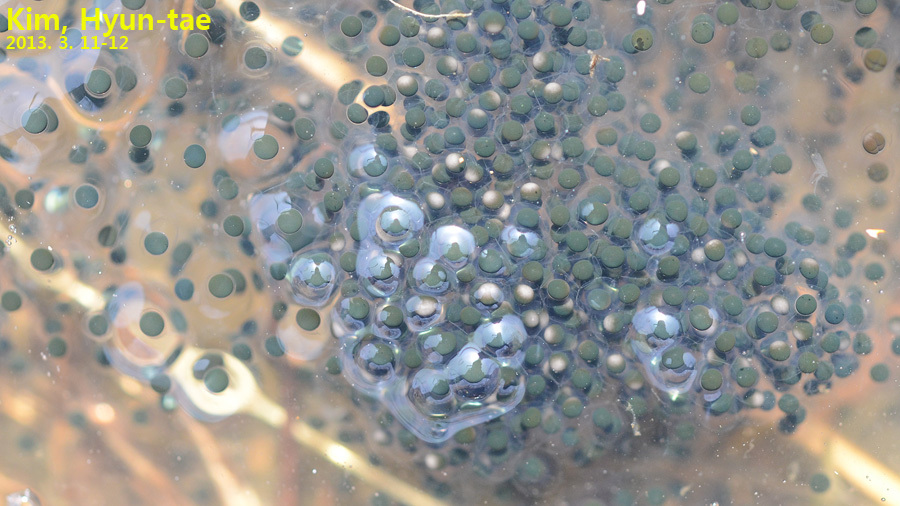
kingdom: Animalia
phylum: Chordata
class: Amphibia
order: Anura
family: Ranidae
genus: Rana
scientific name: Rana uenoi
